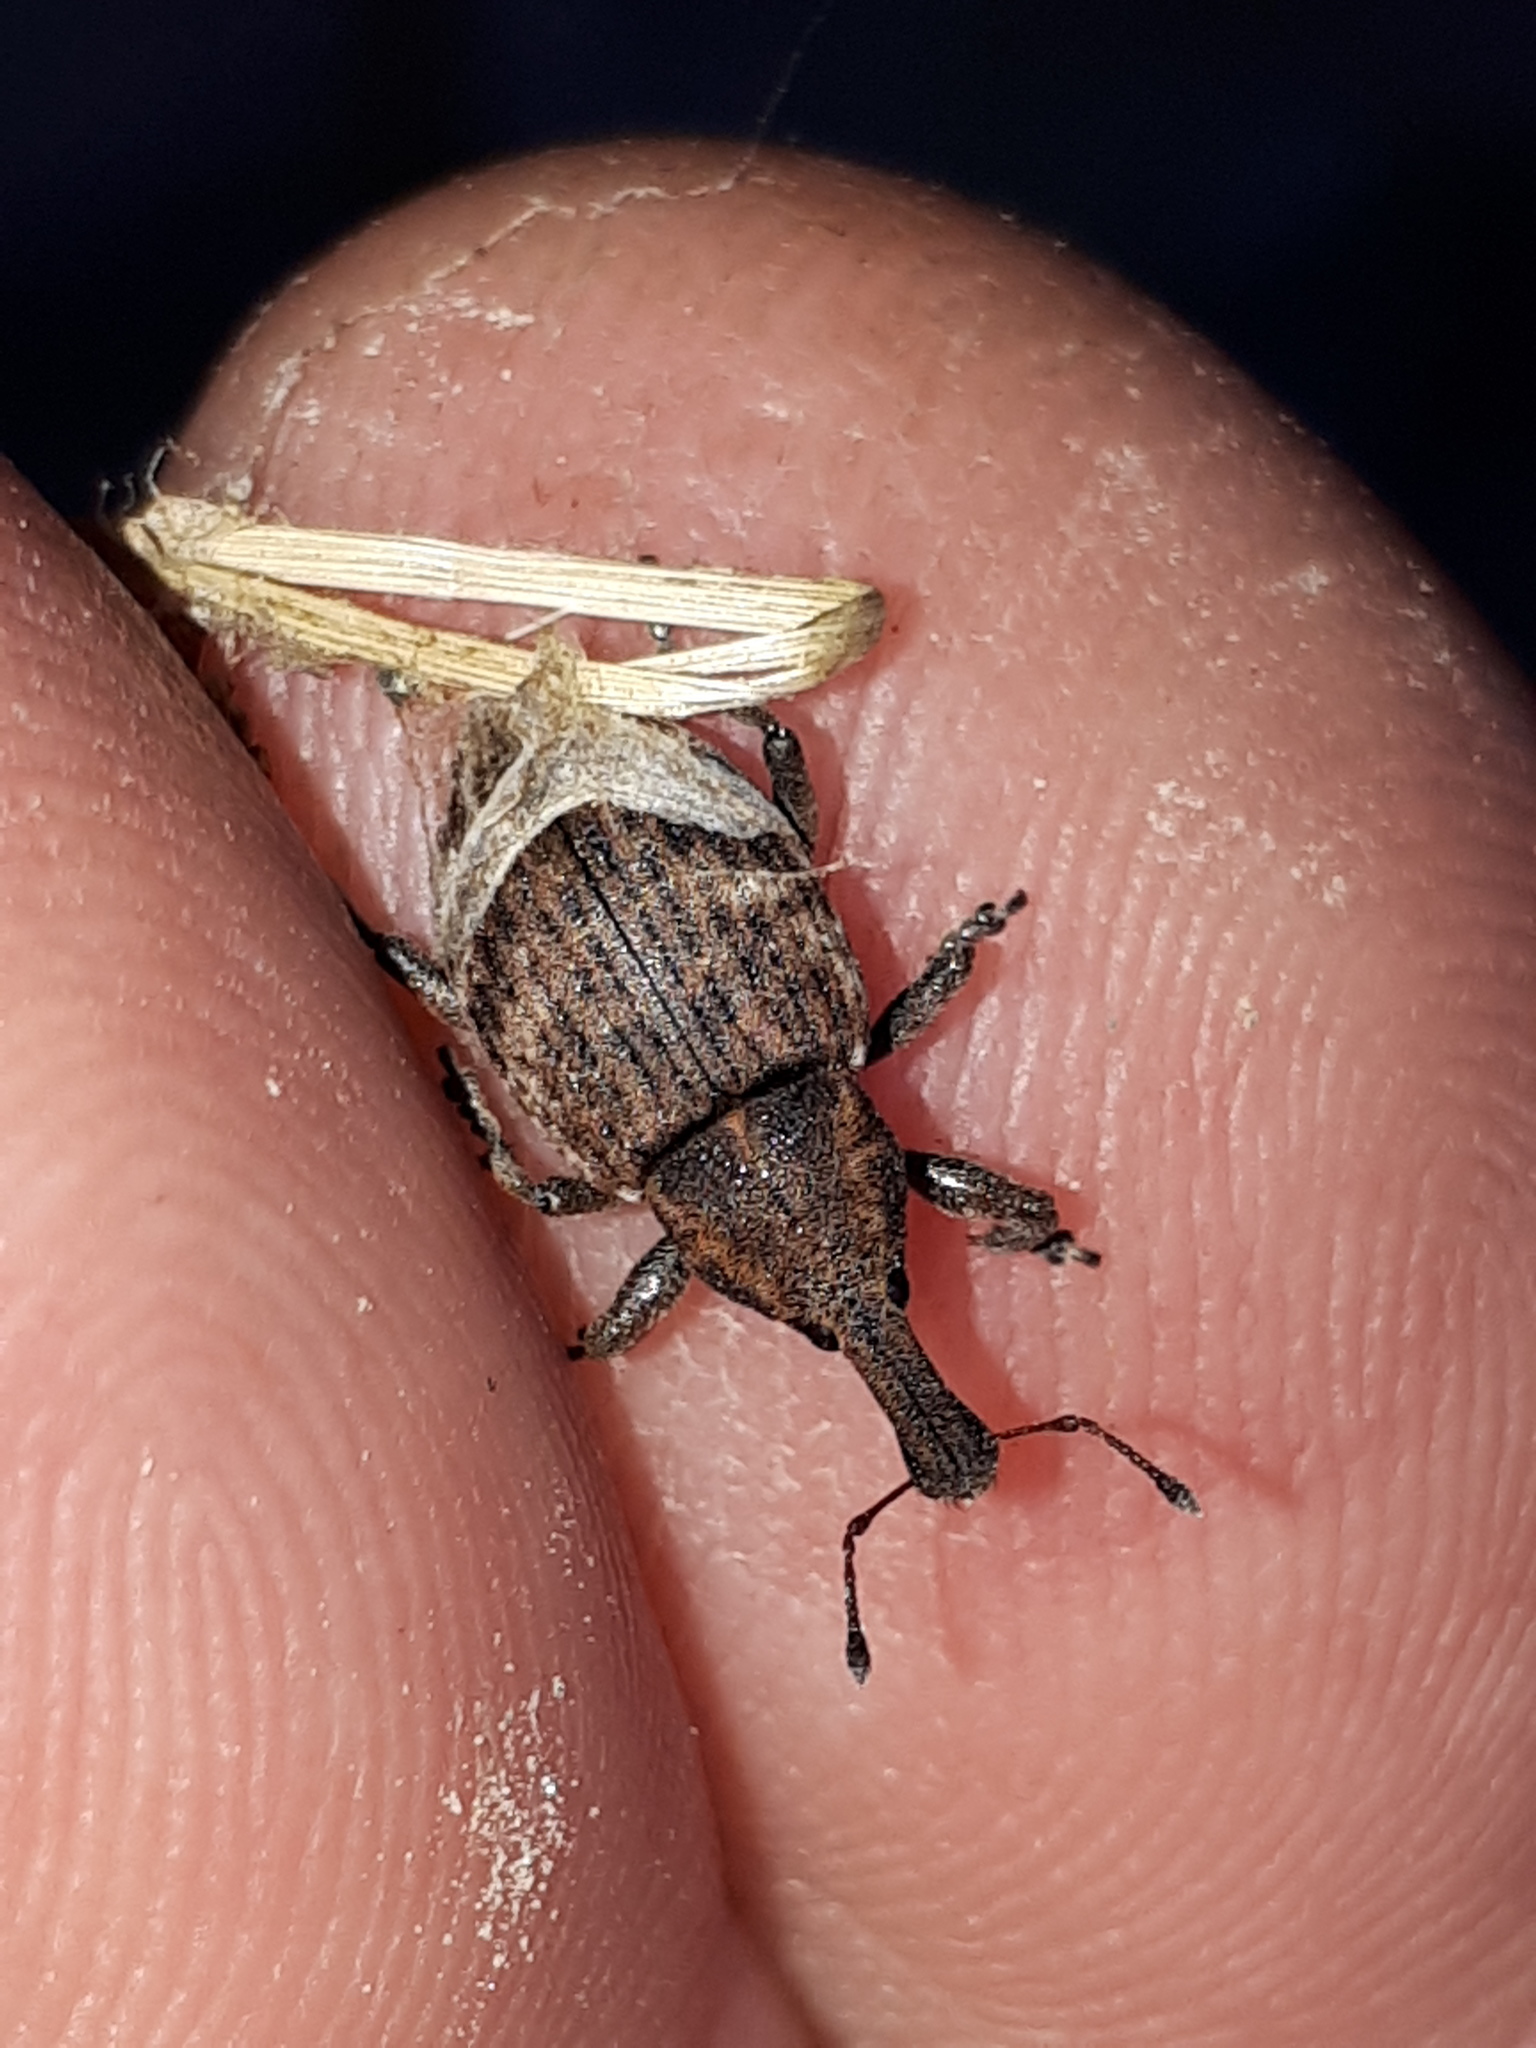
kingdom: Animalia
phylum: Arthropoda
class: Insecta
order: Coleoptera
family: Curculionidae
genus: Lepyrus
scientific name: Lepyrus capucinus
